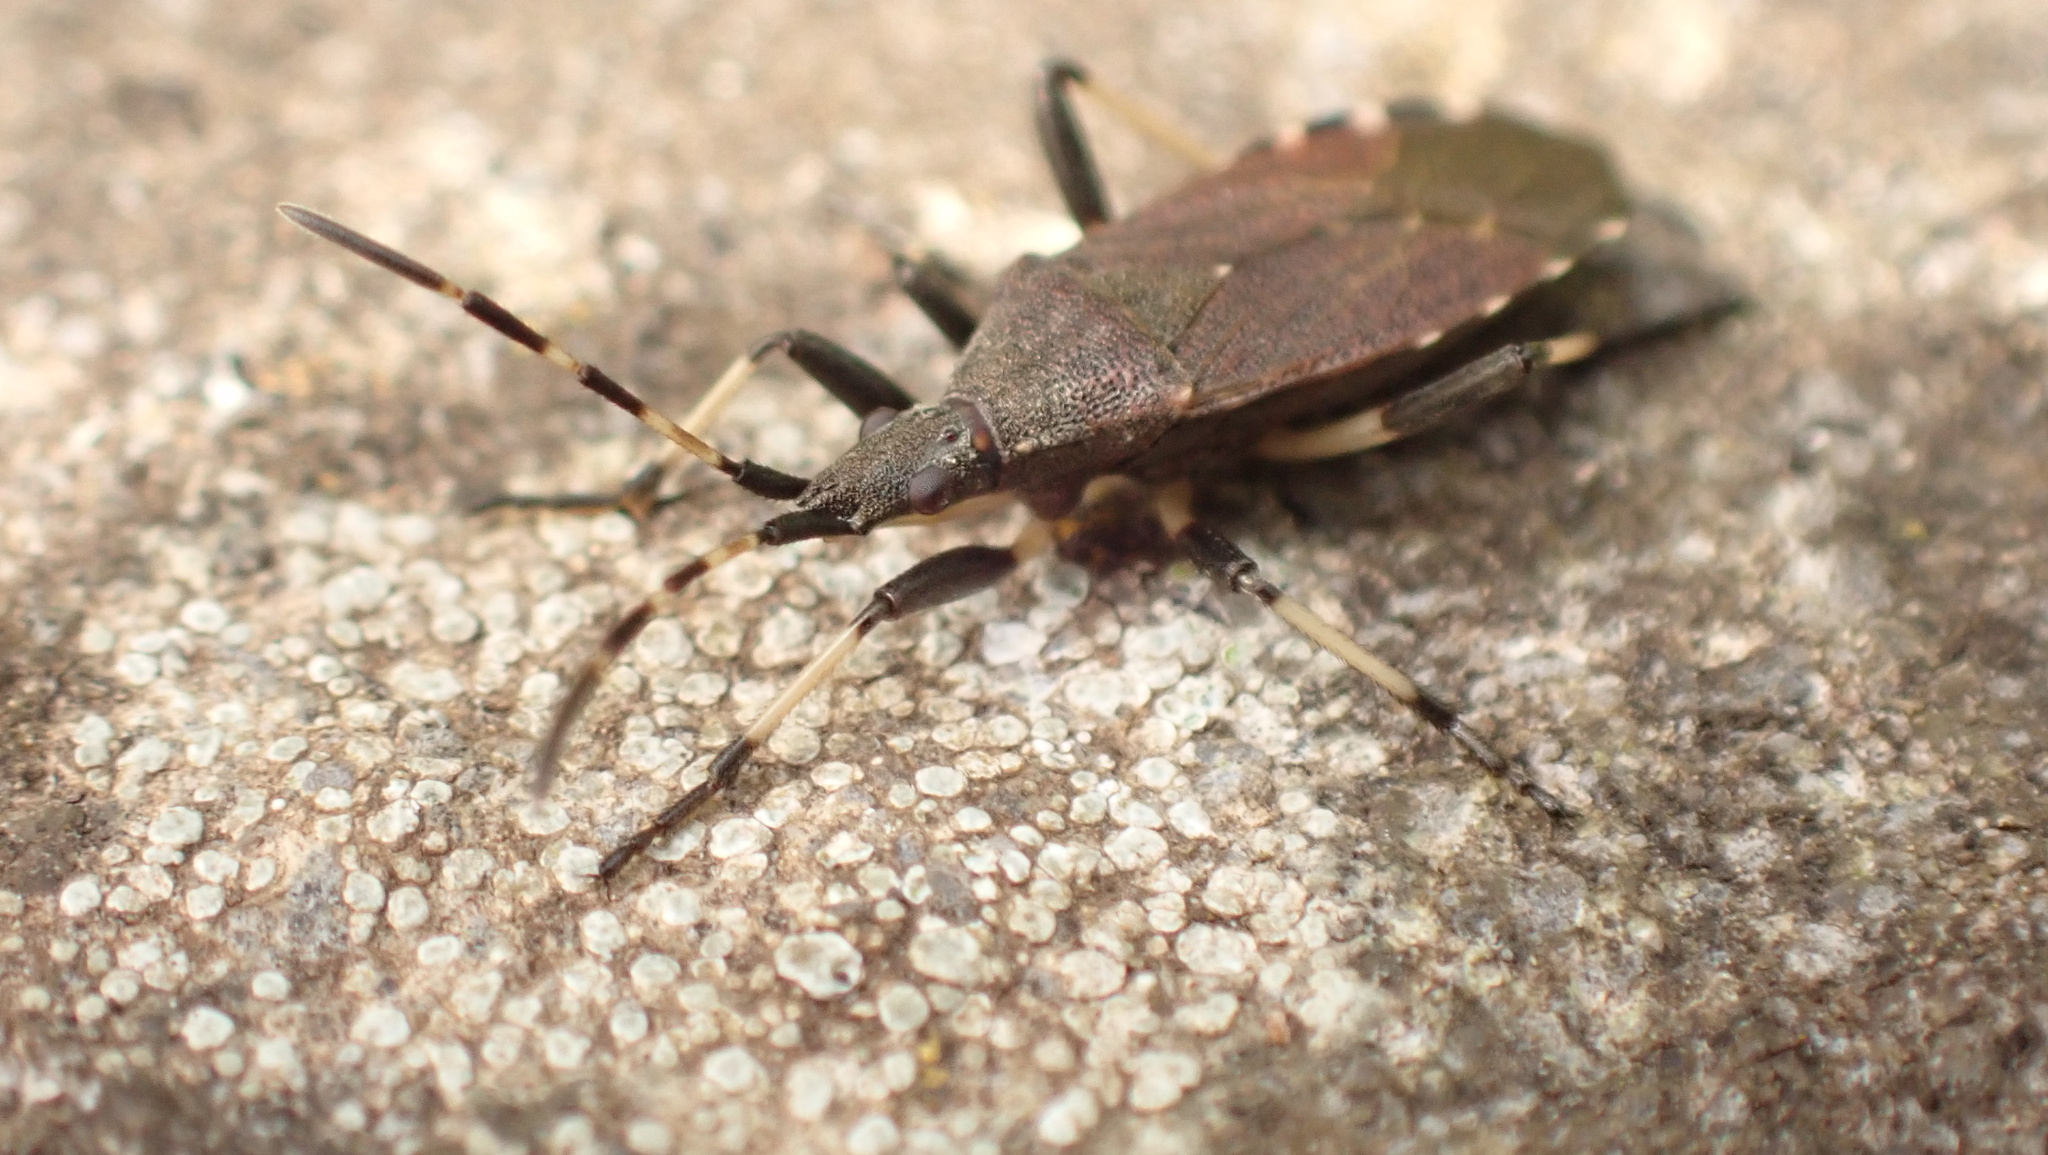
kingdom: Animalia
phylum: Arthropoda
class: Insecta
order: Hemiptera
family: Stenocephalidae
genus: Dicranocephalus
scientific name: Dicranocephalus medius
